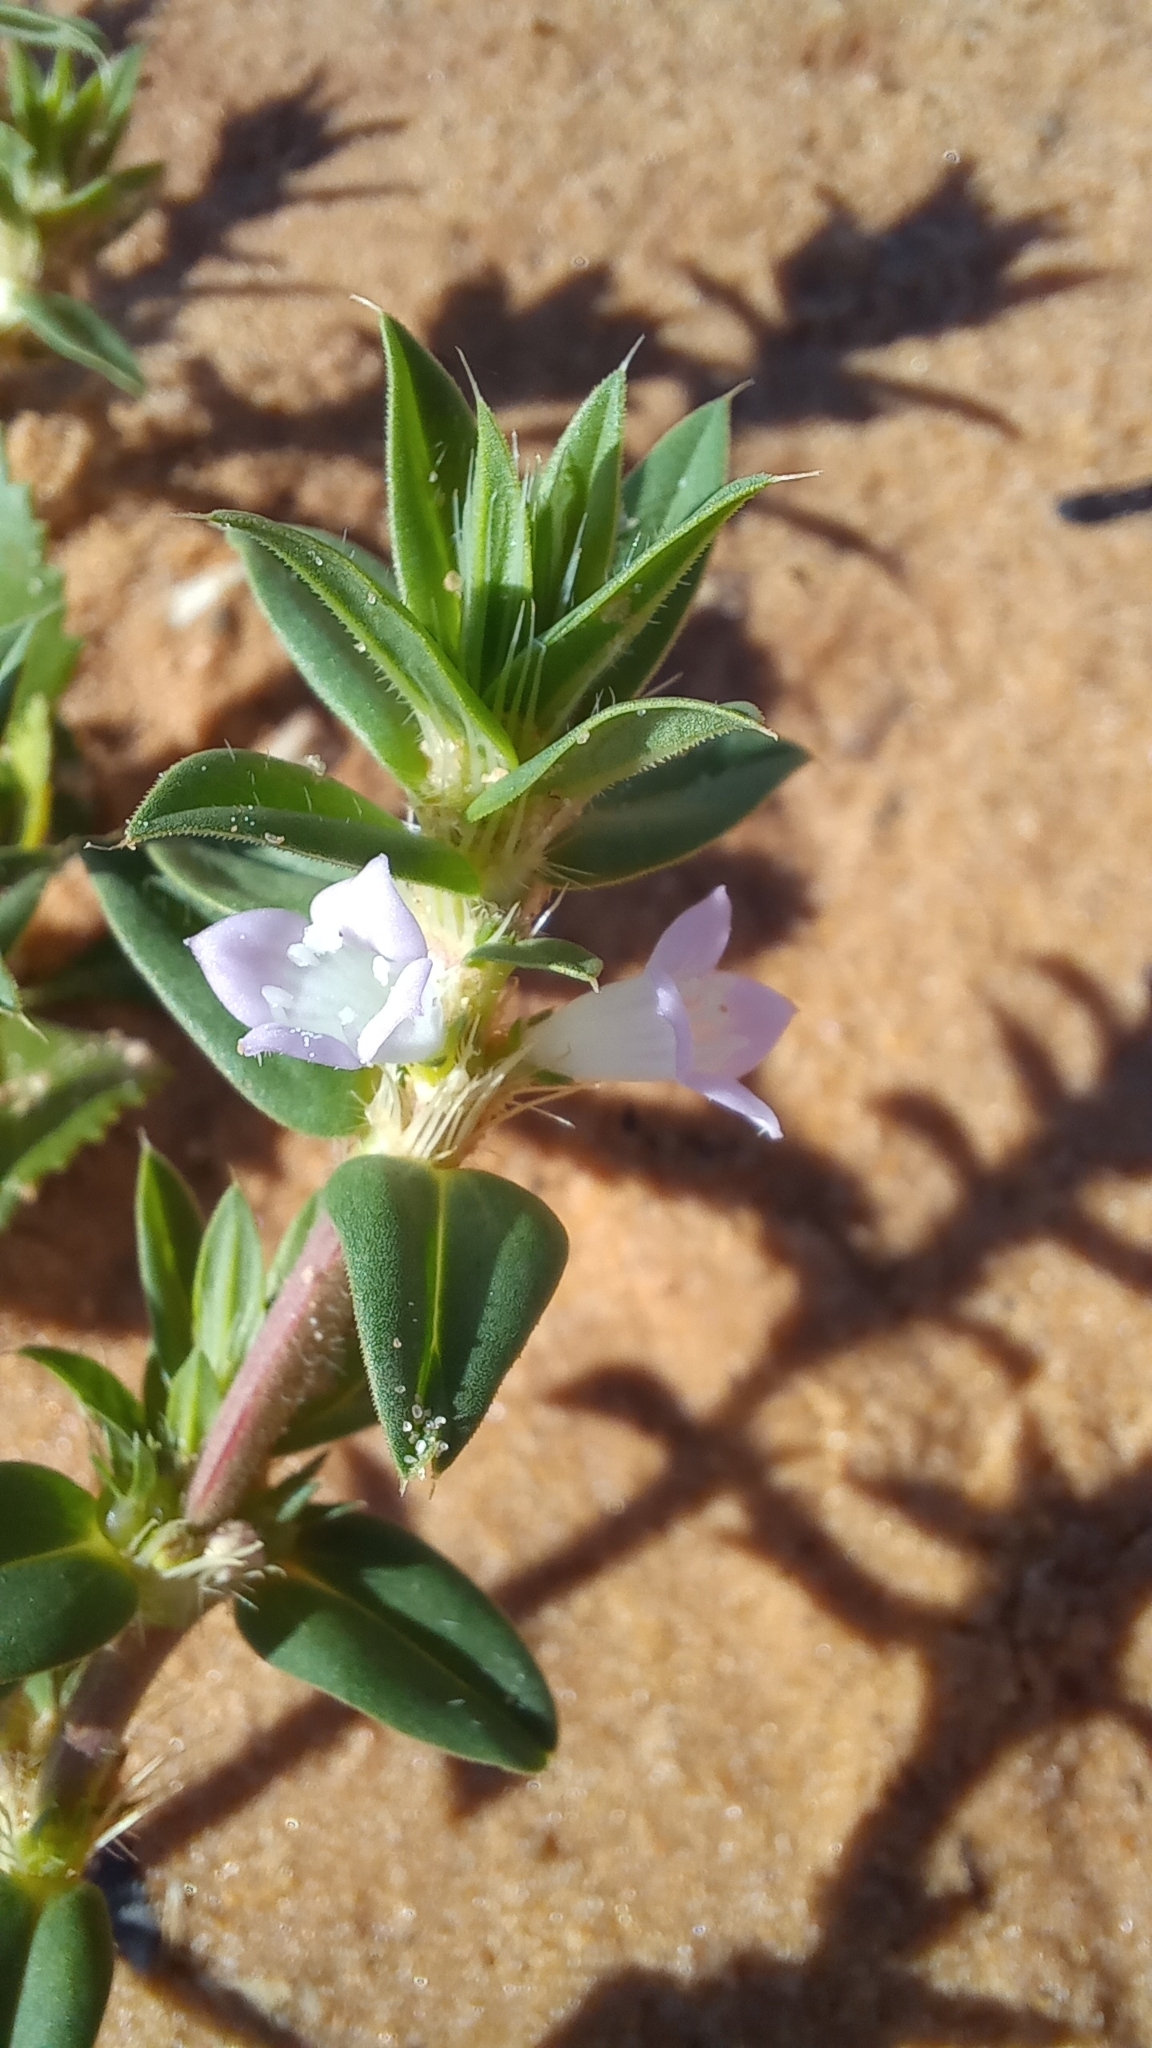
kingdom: Plantae
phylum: Tracheophyta
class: Magnoliopsida
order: Gentianales
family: Rubiaceae
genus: Hexasepalum
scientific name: Hexasepalum apiculatum
